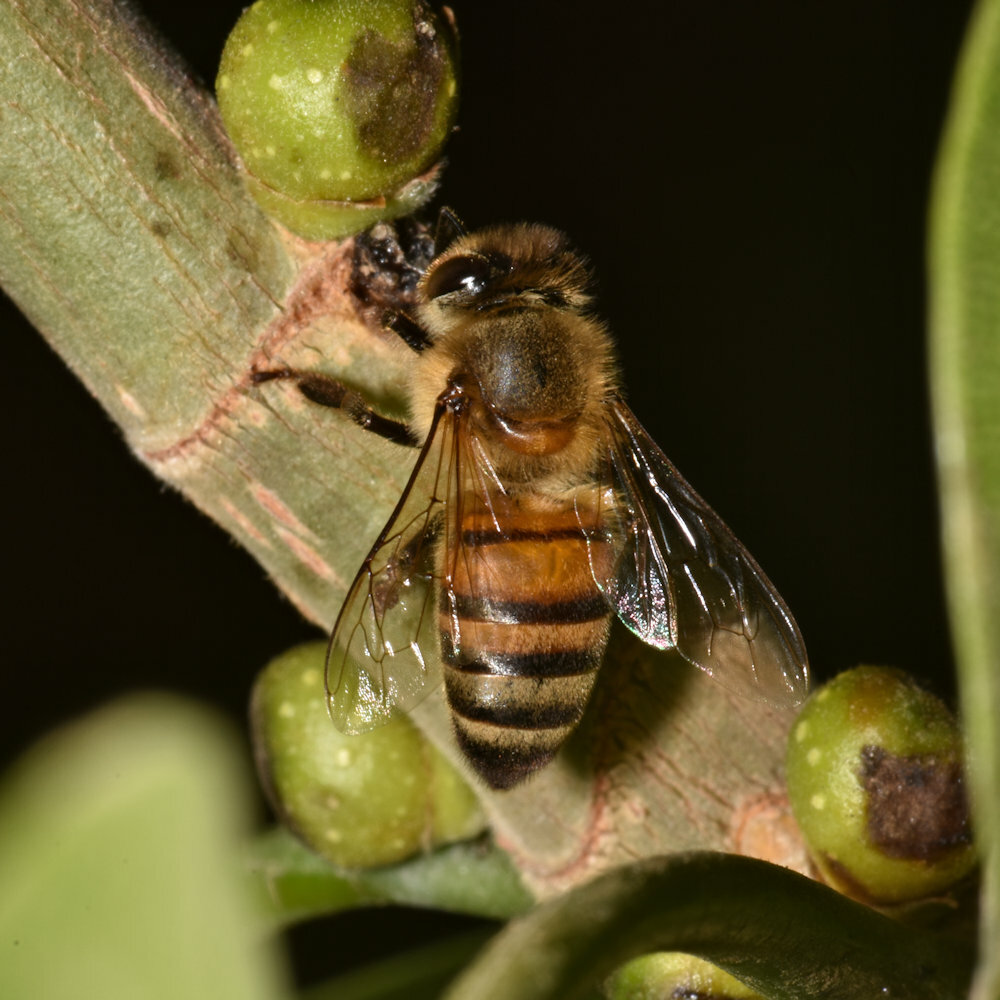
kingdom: Animalia
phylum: Arthropoda
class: Insecta
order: Hymenoptera
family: Apidae
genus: Apis
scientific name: Apis mellifera
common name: Honey bee
